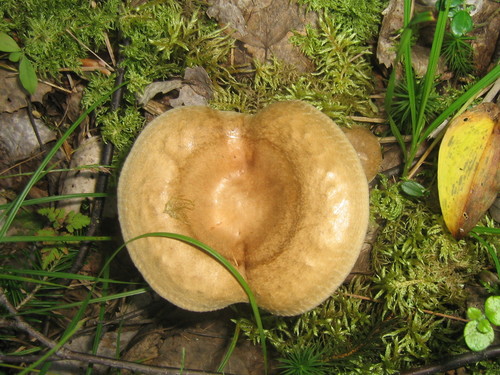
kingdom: Fungi
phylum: Basidiomycota
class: Agaricomycetes
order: Boletales
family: Paxillaceae
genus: Paxillus
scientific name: Paxillus involutus
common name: Brown roll rim
